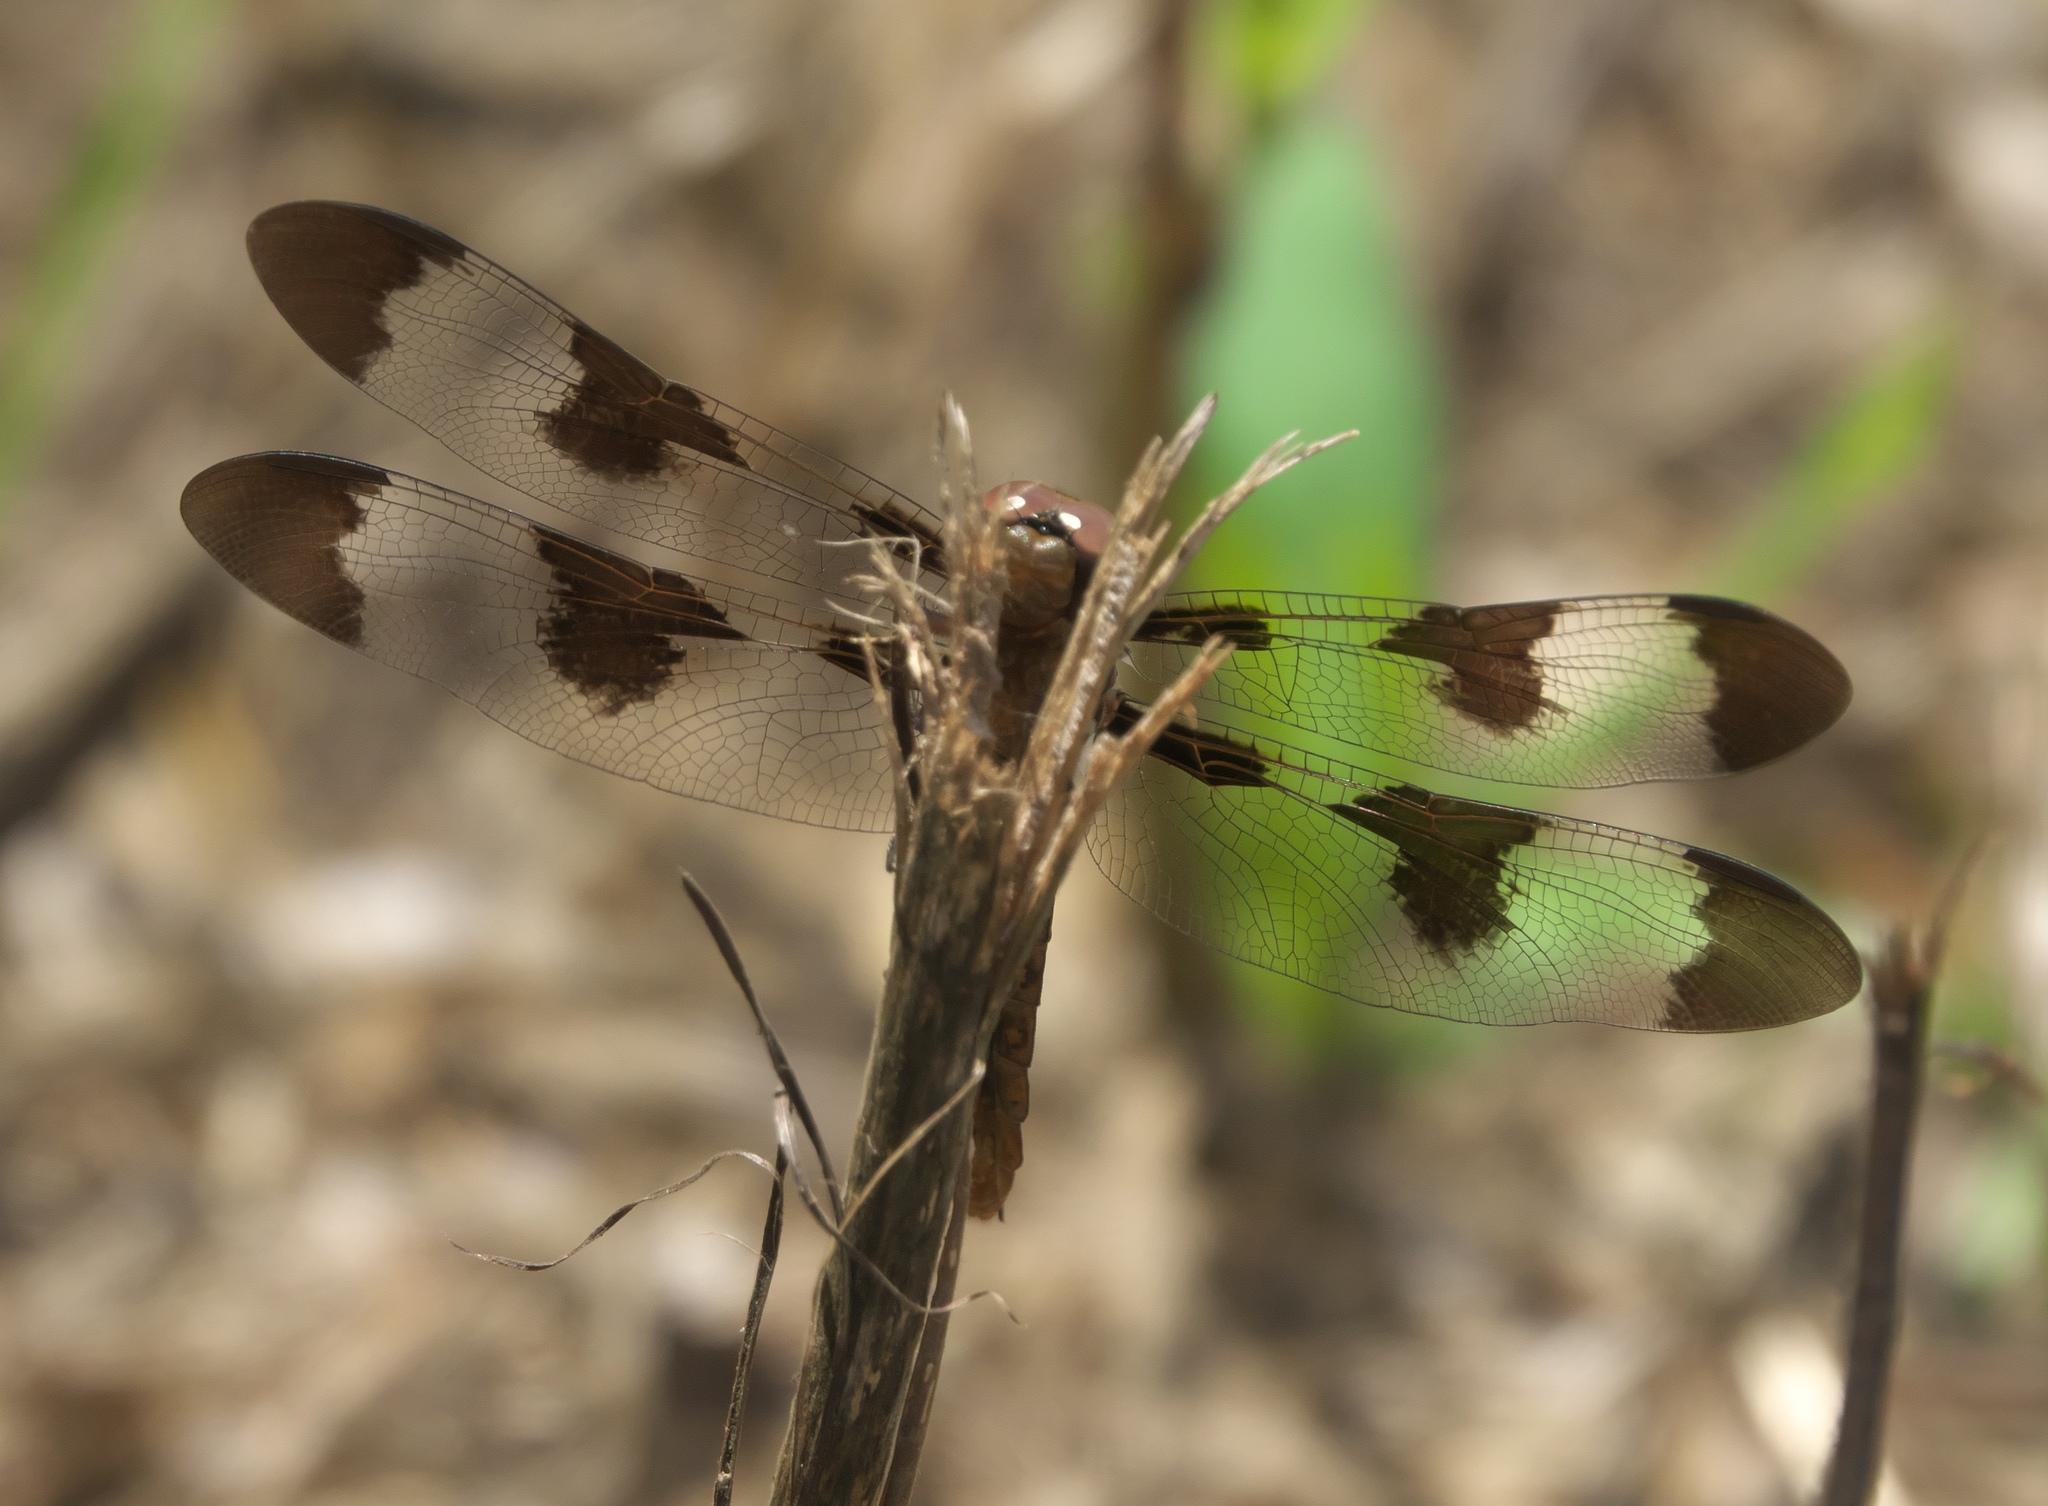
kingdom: Animalia
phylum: Arthropoda
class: Insecta
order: Odonata
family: Libellulidae
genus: Plathemis
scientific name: Plathemis lydia
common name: Common whitetail
